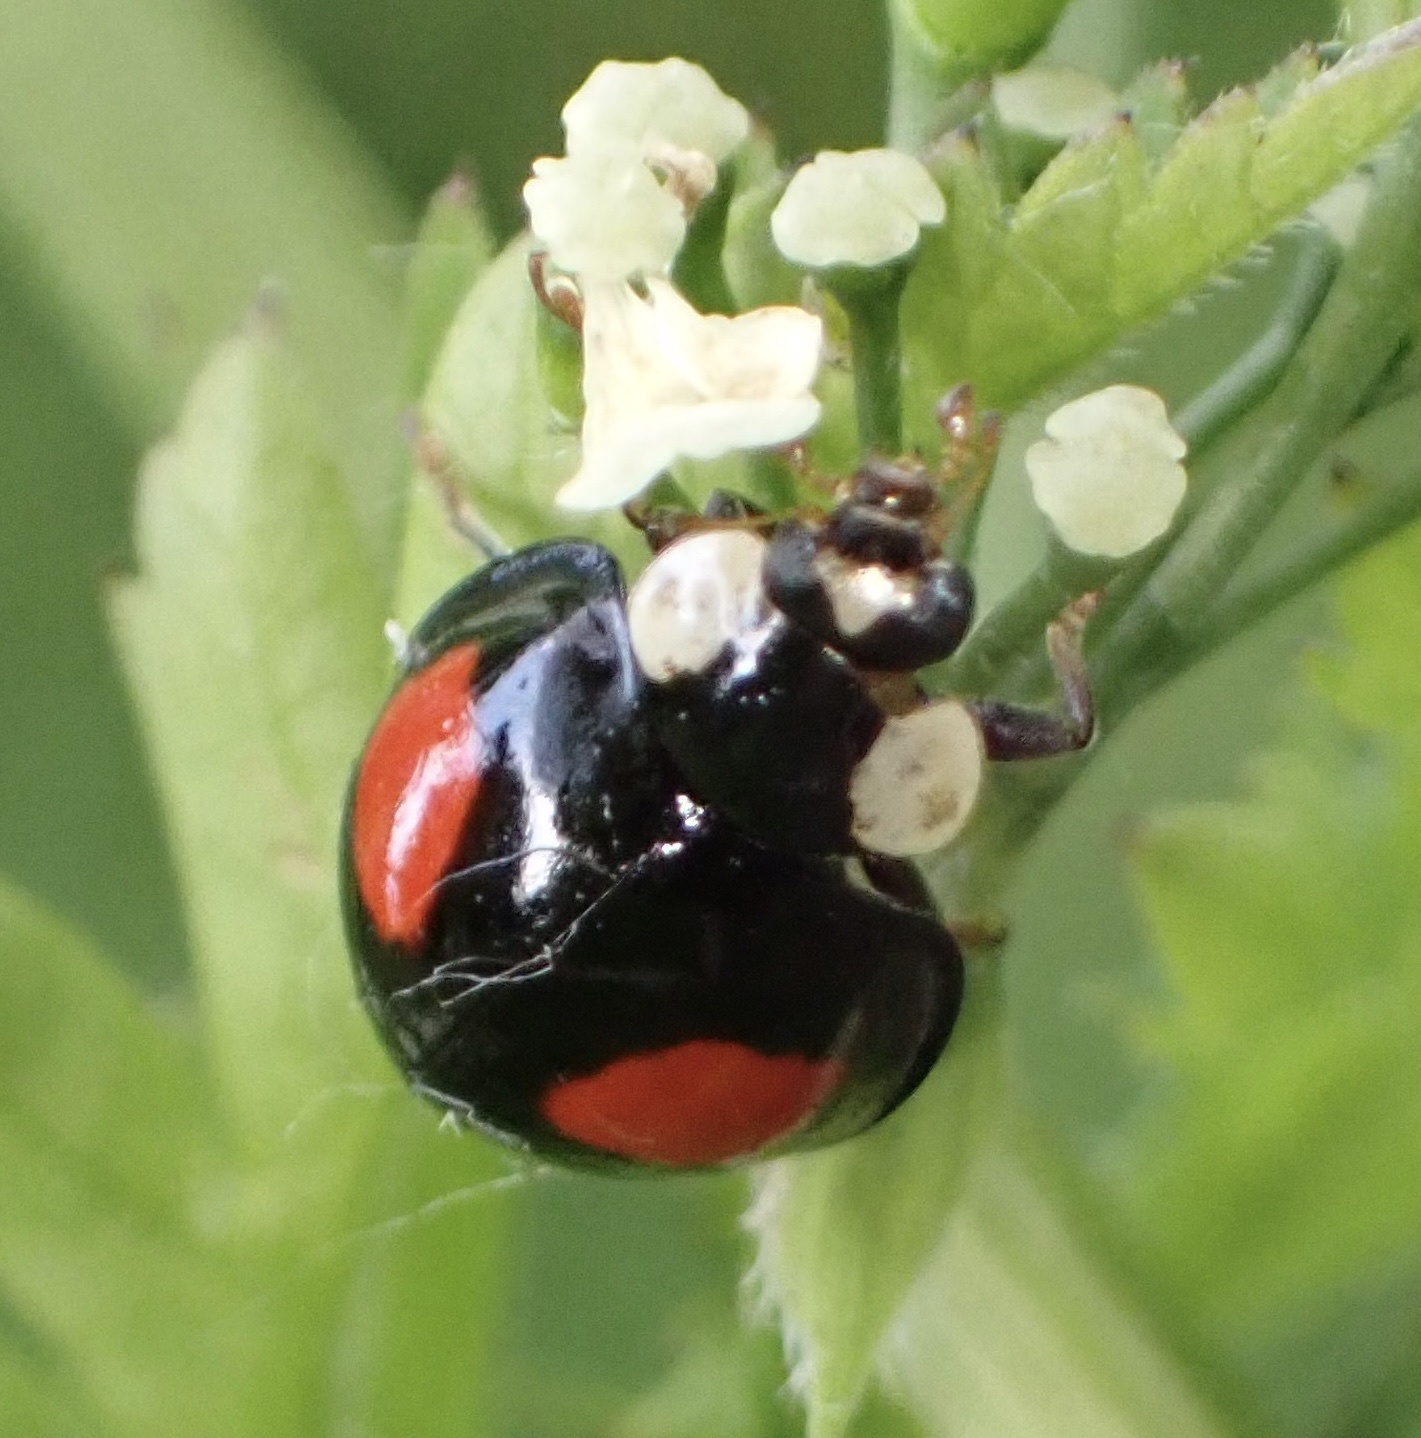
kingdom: Animalia
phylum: Arthropoda
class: Insecta
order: Coleoptera
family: Coccinellidae
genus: Harmonia
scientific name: Harmonia axyridis
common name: Harlequin ladybird
